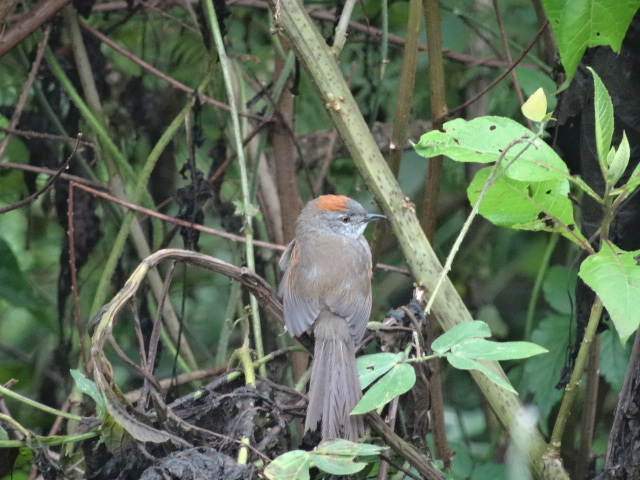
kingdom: Animalia
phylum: Chordata
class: Aves
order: Passeriformes
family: Furnariidae
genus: Synallaxis
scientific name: Synallaxis albescens
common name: Pale-breasted spinetail
